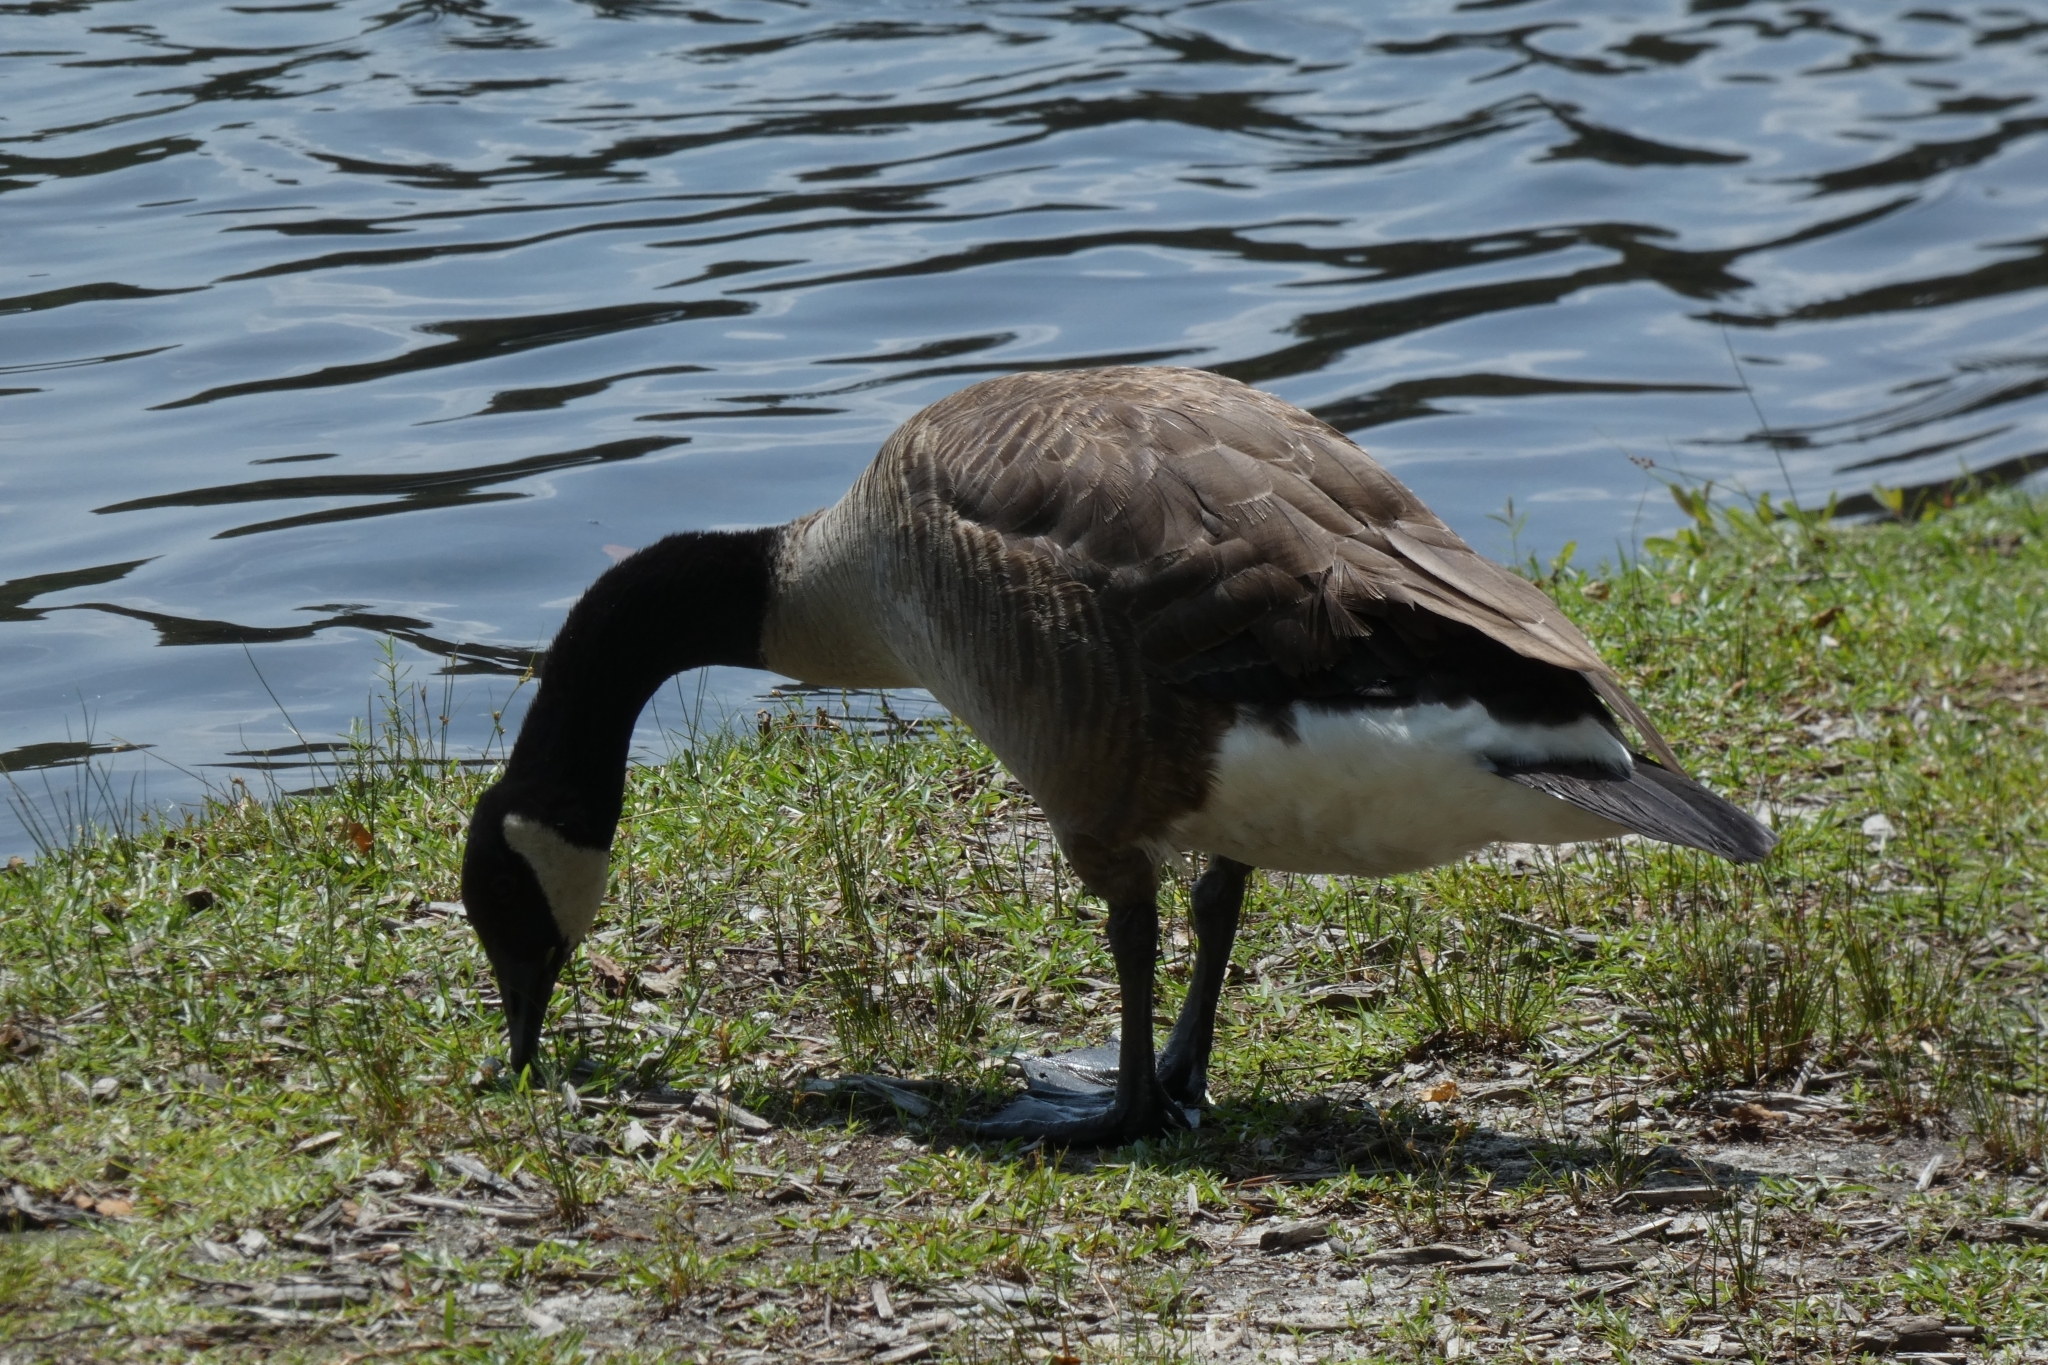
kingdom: Animalia
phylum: Chordata
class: Aves
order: Anseriformes
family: Anatidae
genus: Branta
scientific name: Branta canadensis
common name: Canada goose
